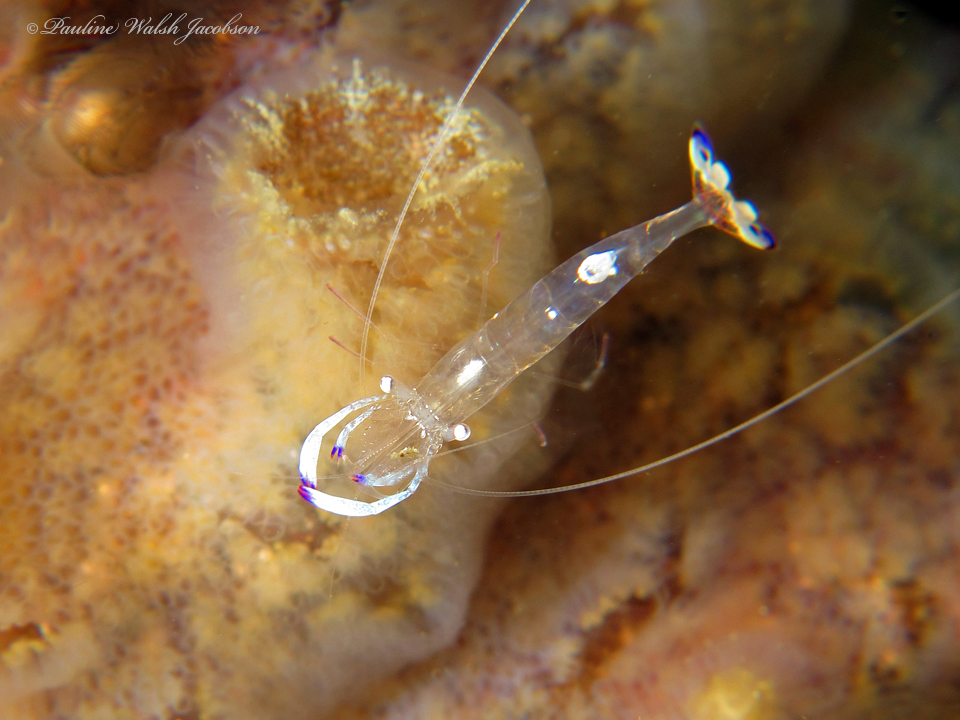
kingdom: Animalia
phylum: Arthropoda
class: Malacostraca
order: Decapoda
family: Palaemonidae
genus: Ancylomenes
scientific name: Ancylomenes magnificus
